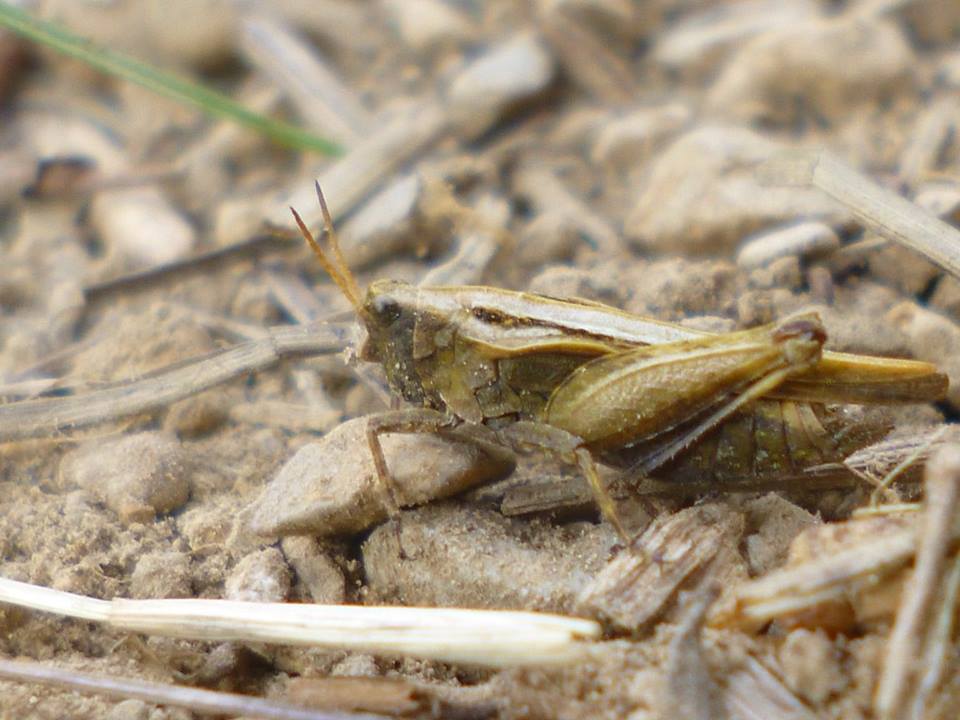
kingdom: Animalia
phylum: Arthropoda
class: Insecta
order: Orthoptera
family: Tetrigidae
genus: Tetrix
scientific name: Tetrix subulata
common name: Slender ground-hopper
